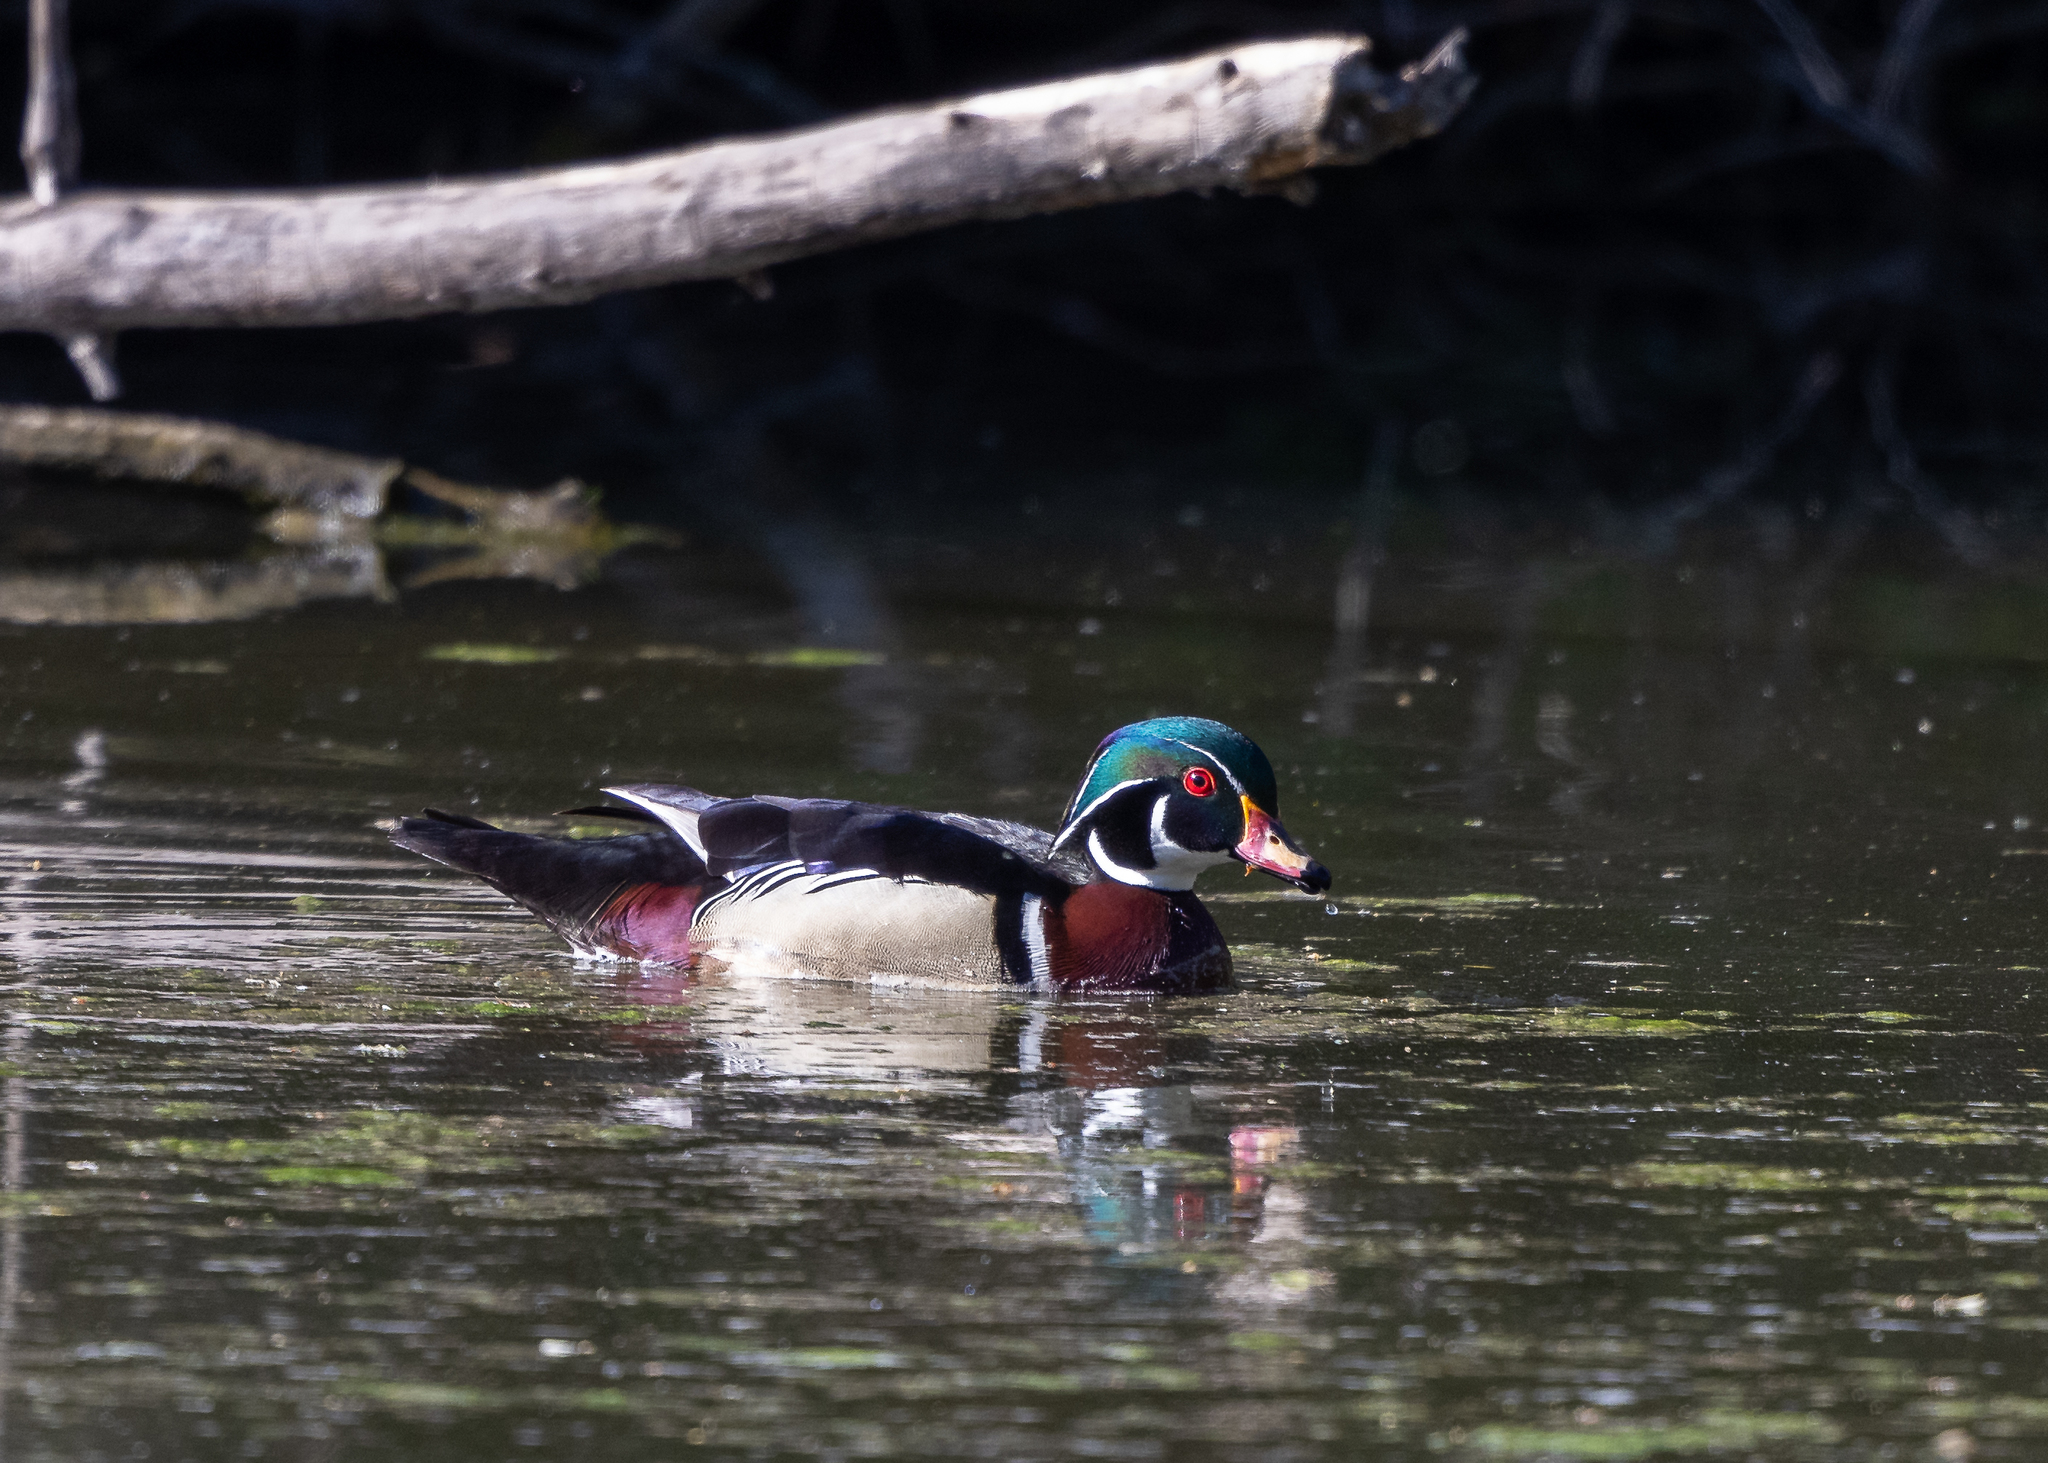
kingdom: Animalia
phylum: Chordata
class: Aves
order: Anseriformes
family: Anatidae
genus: Aix
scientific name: Aix sponsa
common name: Wood duck
